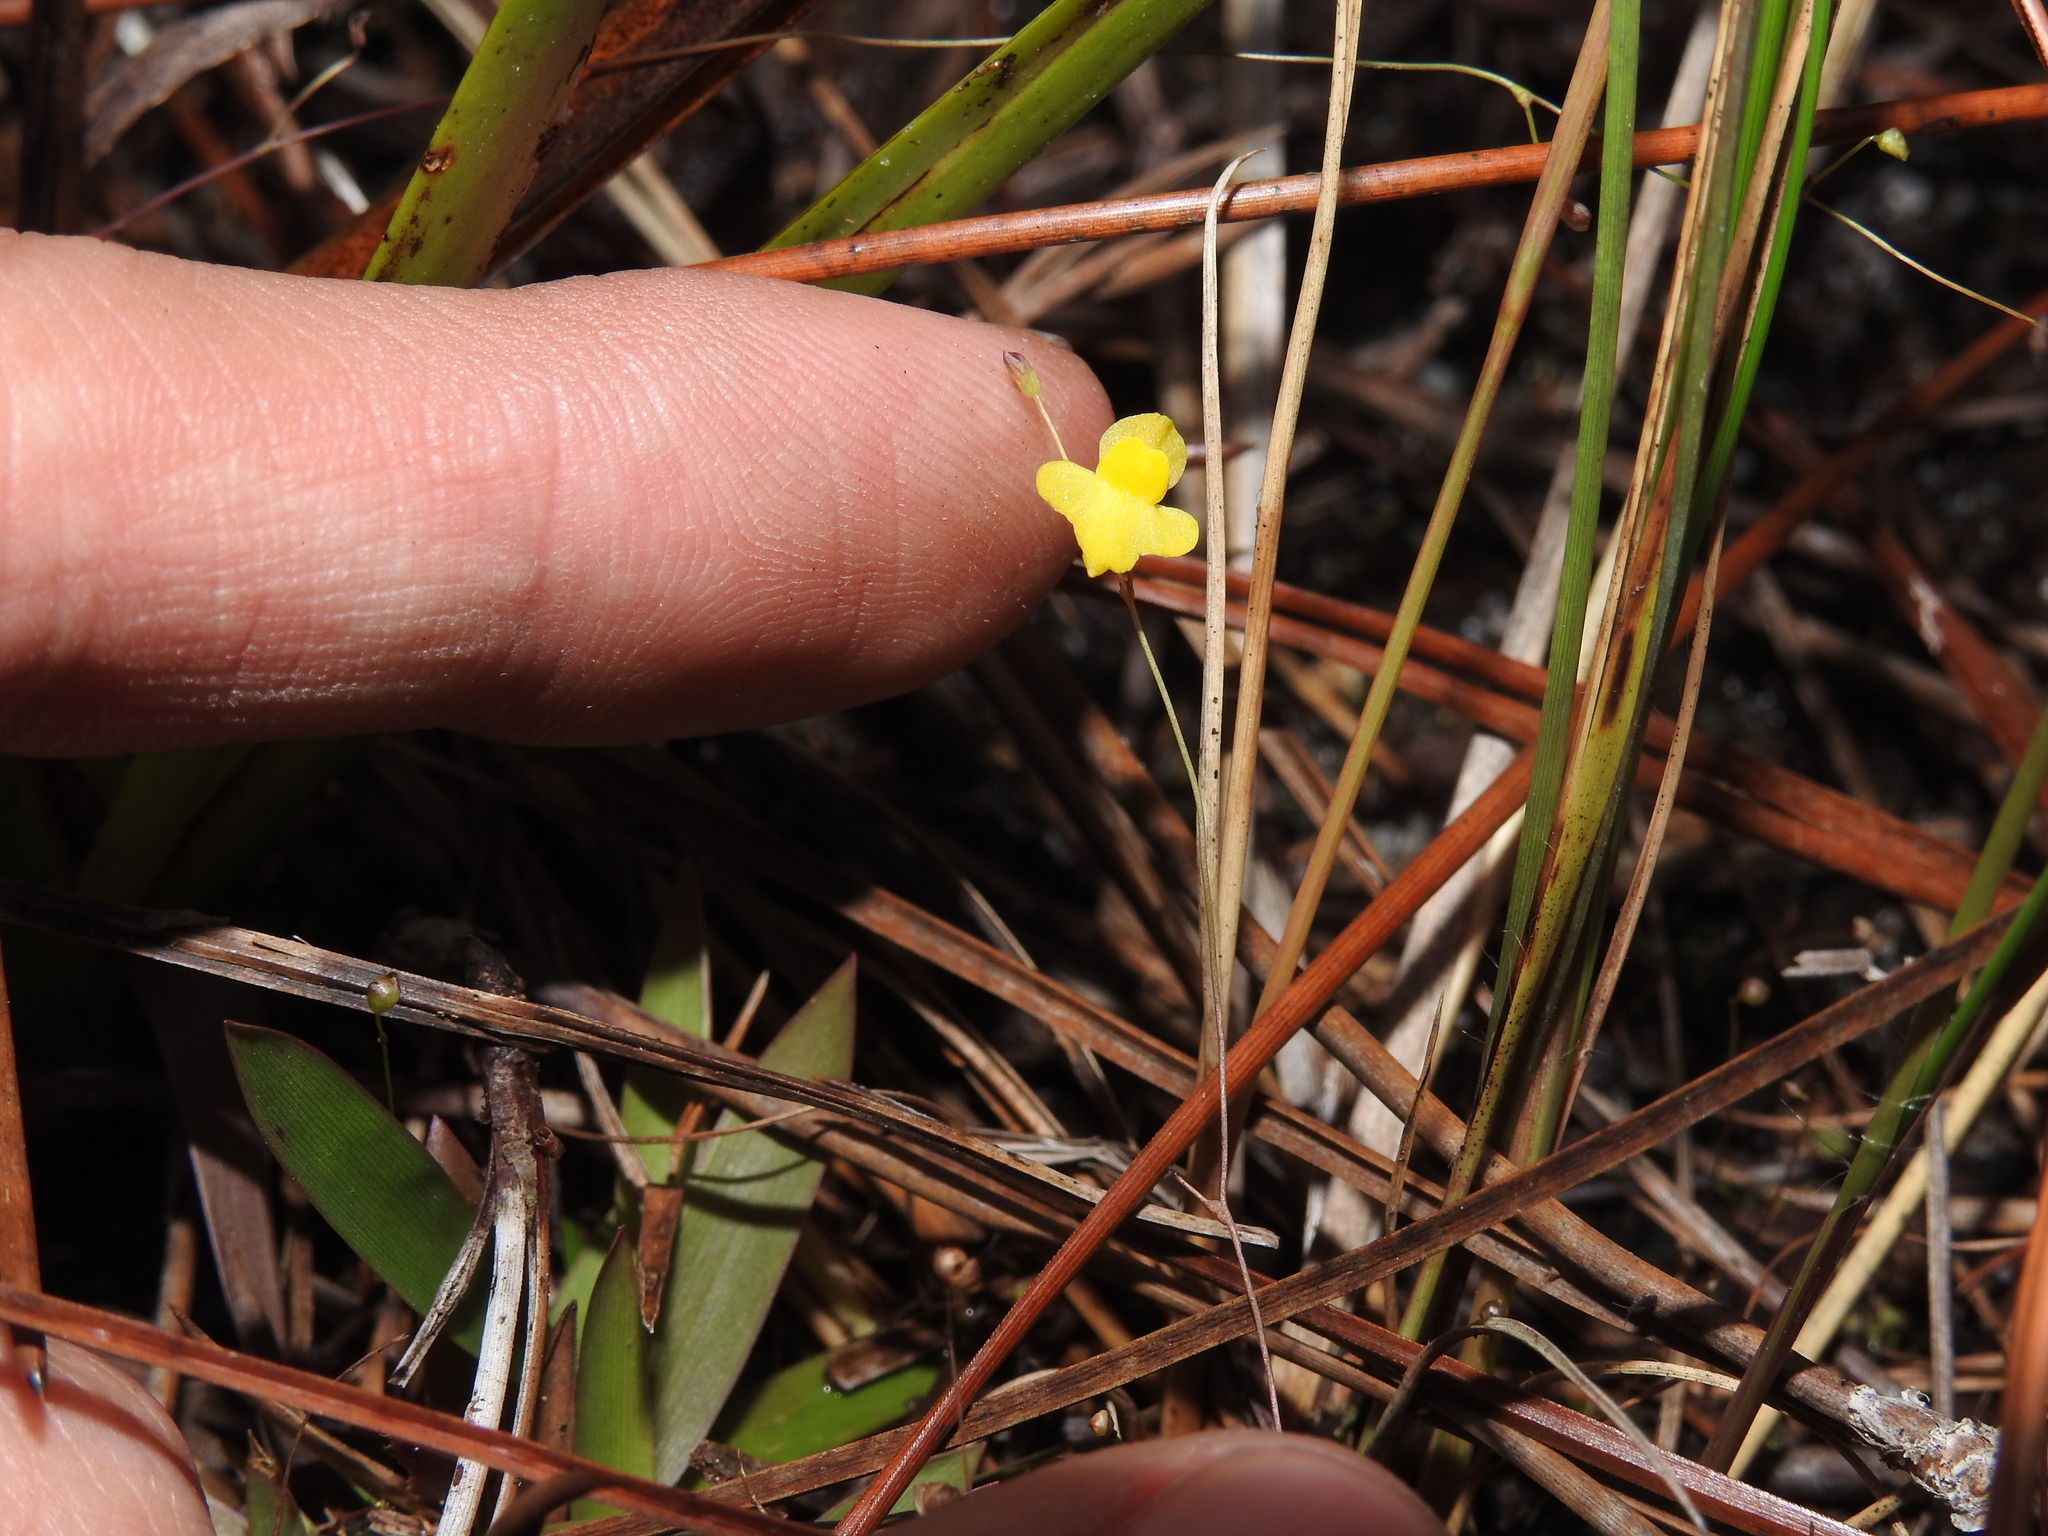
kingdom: Plantae
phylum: Tracheophyta
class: Magnoliopsida
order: Lamiales
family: Lentibulariaceae
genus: Utricularia
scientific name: Utricularia subulata
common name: Tiny bladderwort
